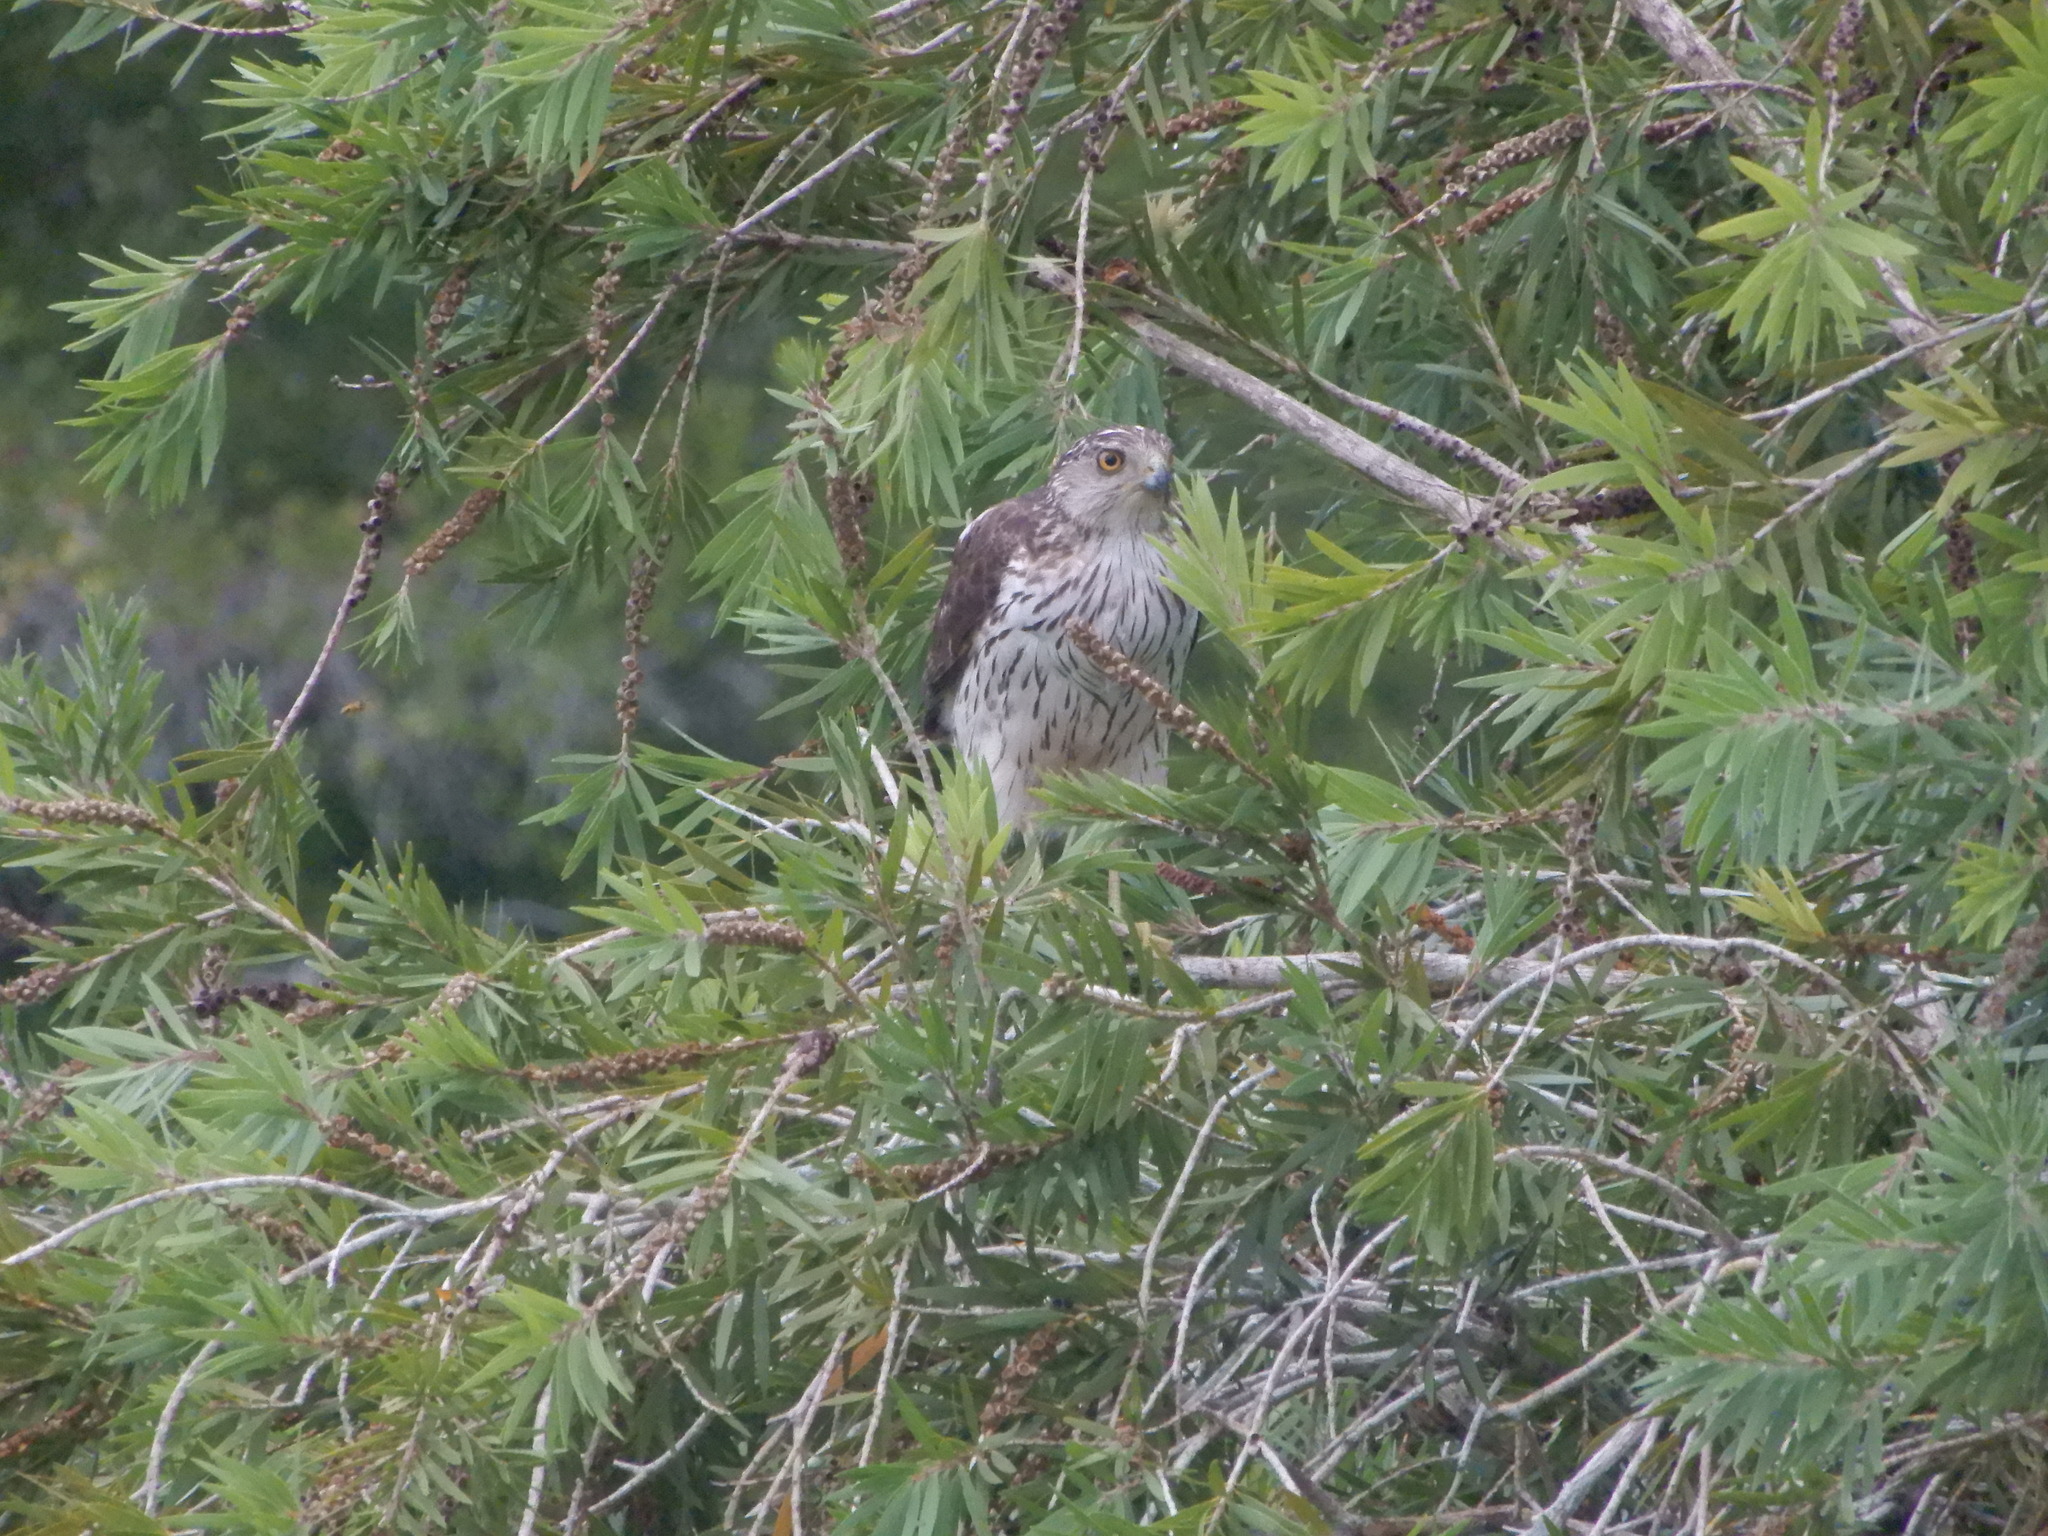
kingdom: Animalia
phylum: Chordata
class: Aves
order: Accipitriformes
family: Accipitridae
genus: Accipiter
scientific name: Accipiter cooperii
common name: Cooper's hawk
